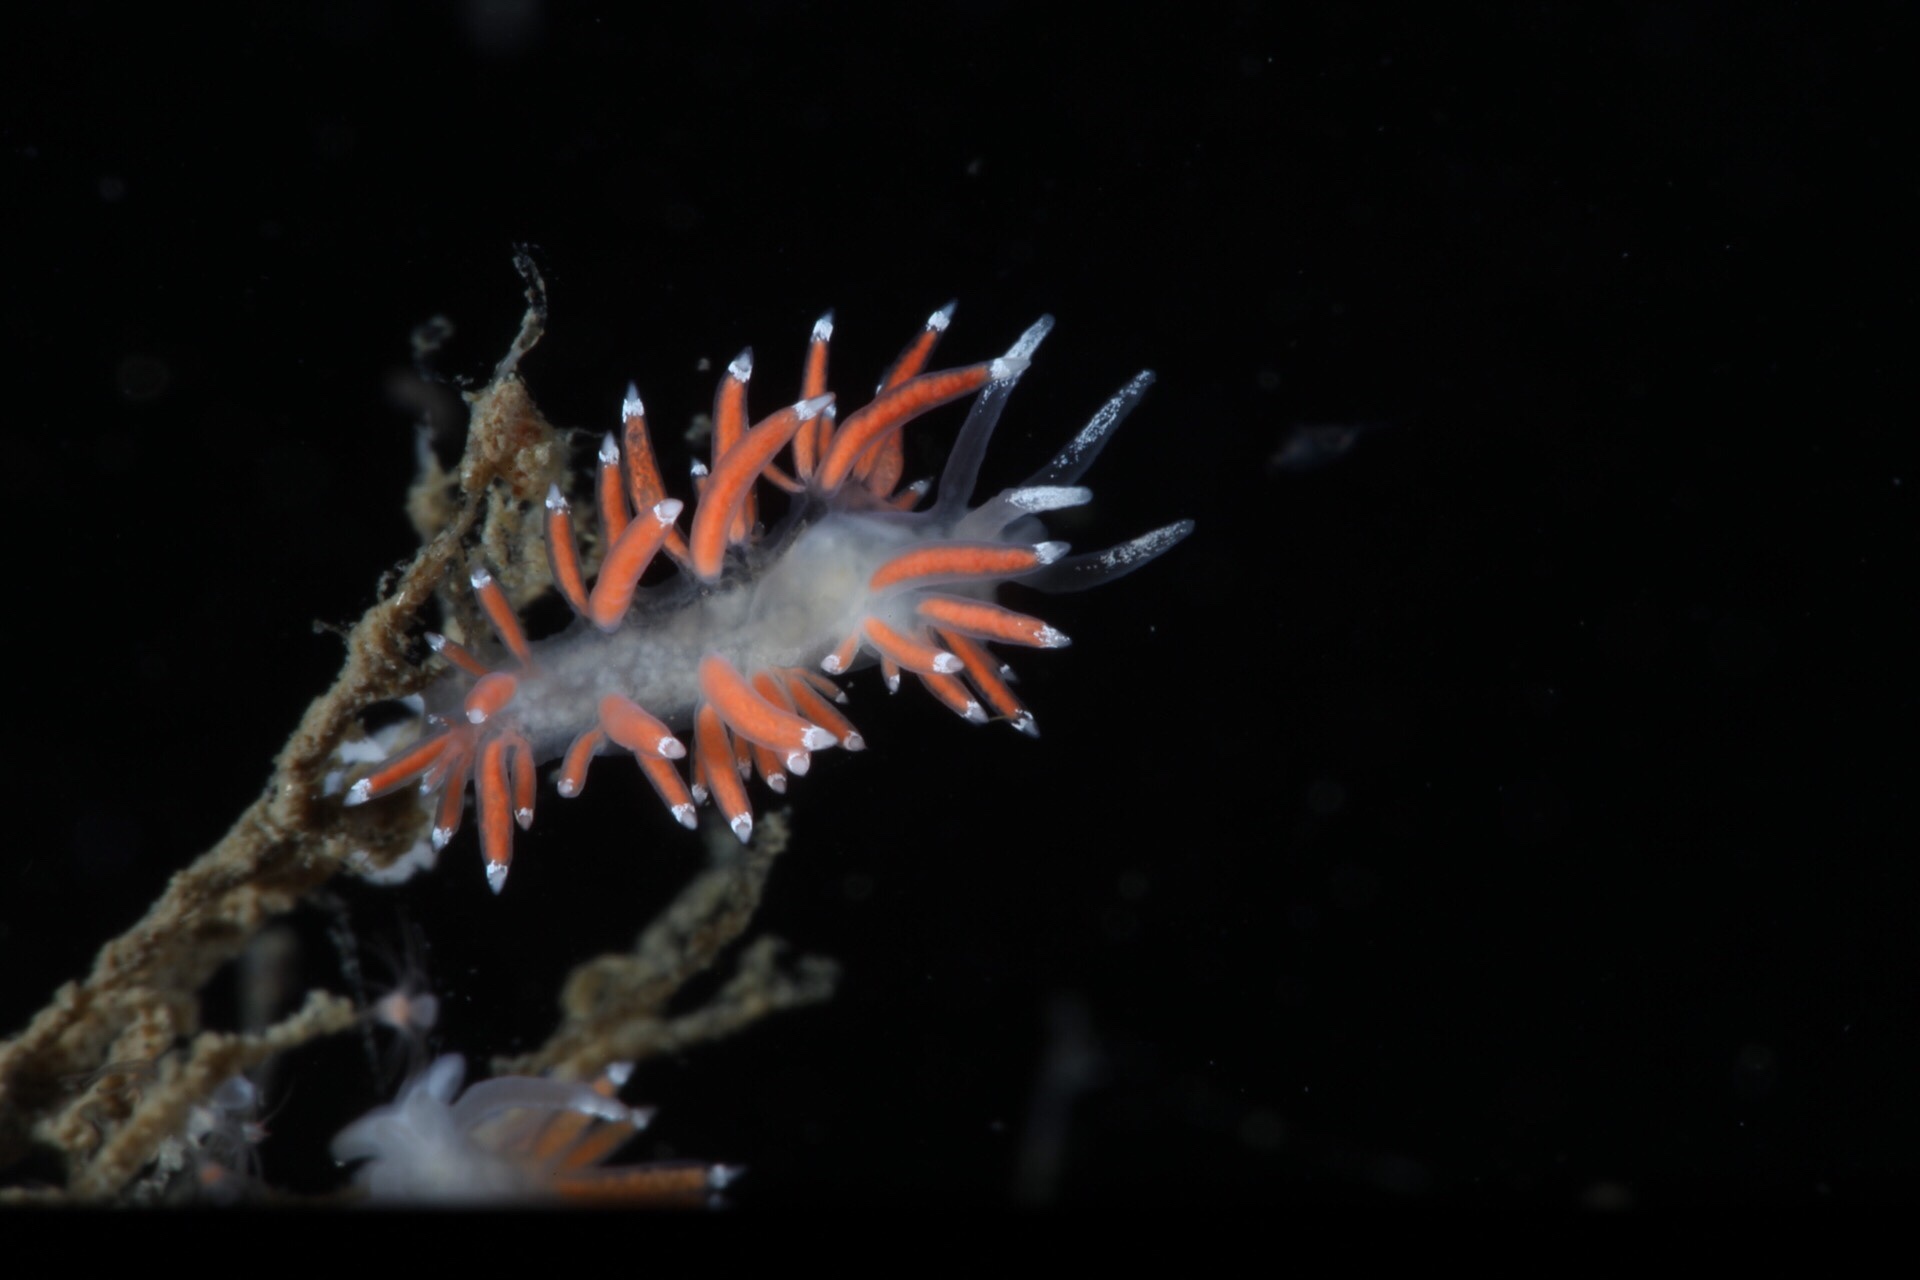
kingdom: Animalia
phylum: Mollusca
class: Gastropoda
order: Nudibranchia
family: Coryphellidae
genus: Coryphella
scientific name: Coryphella gracilis
